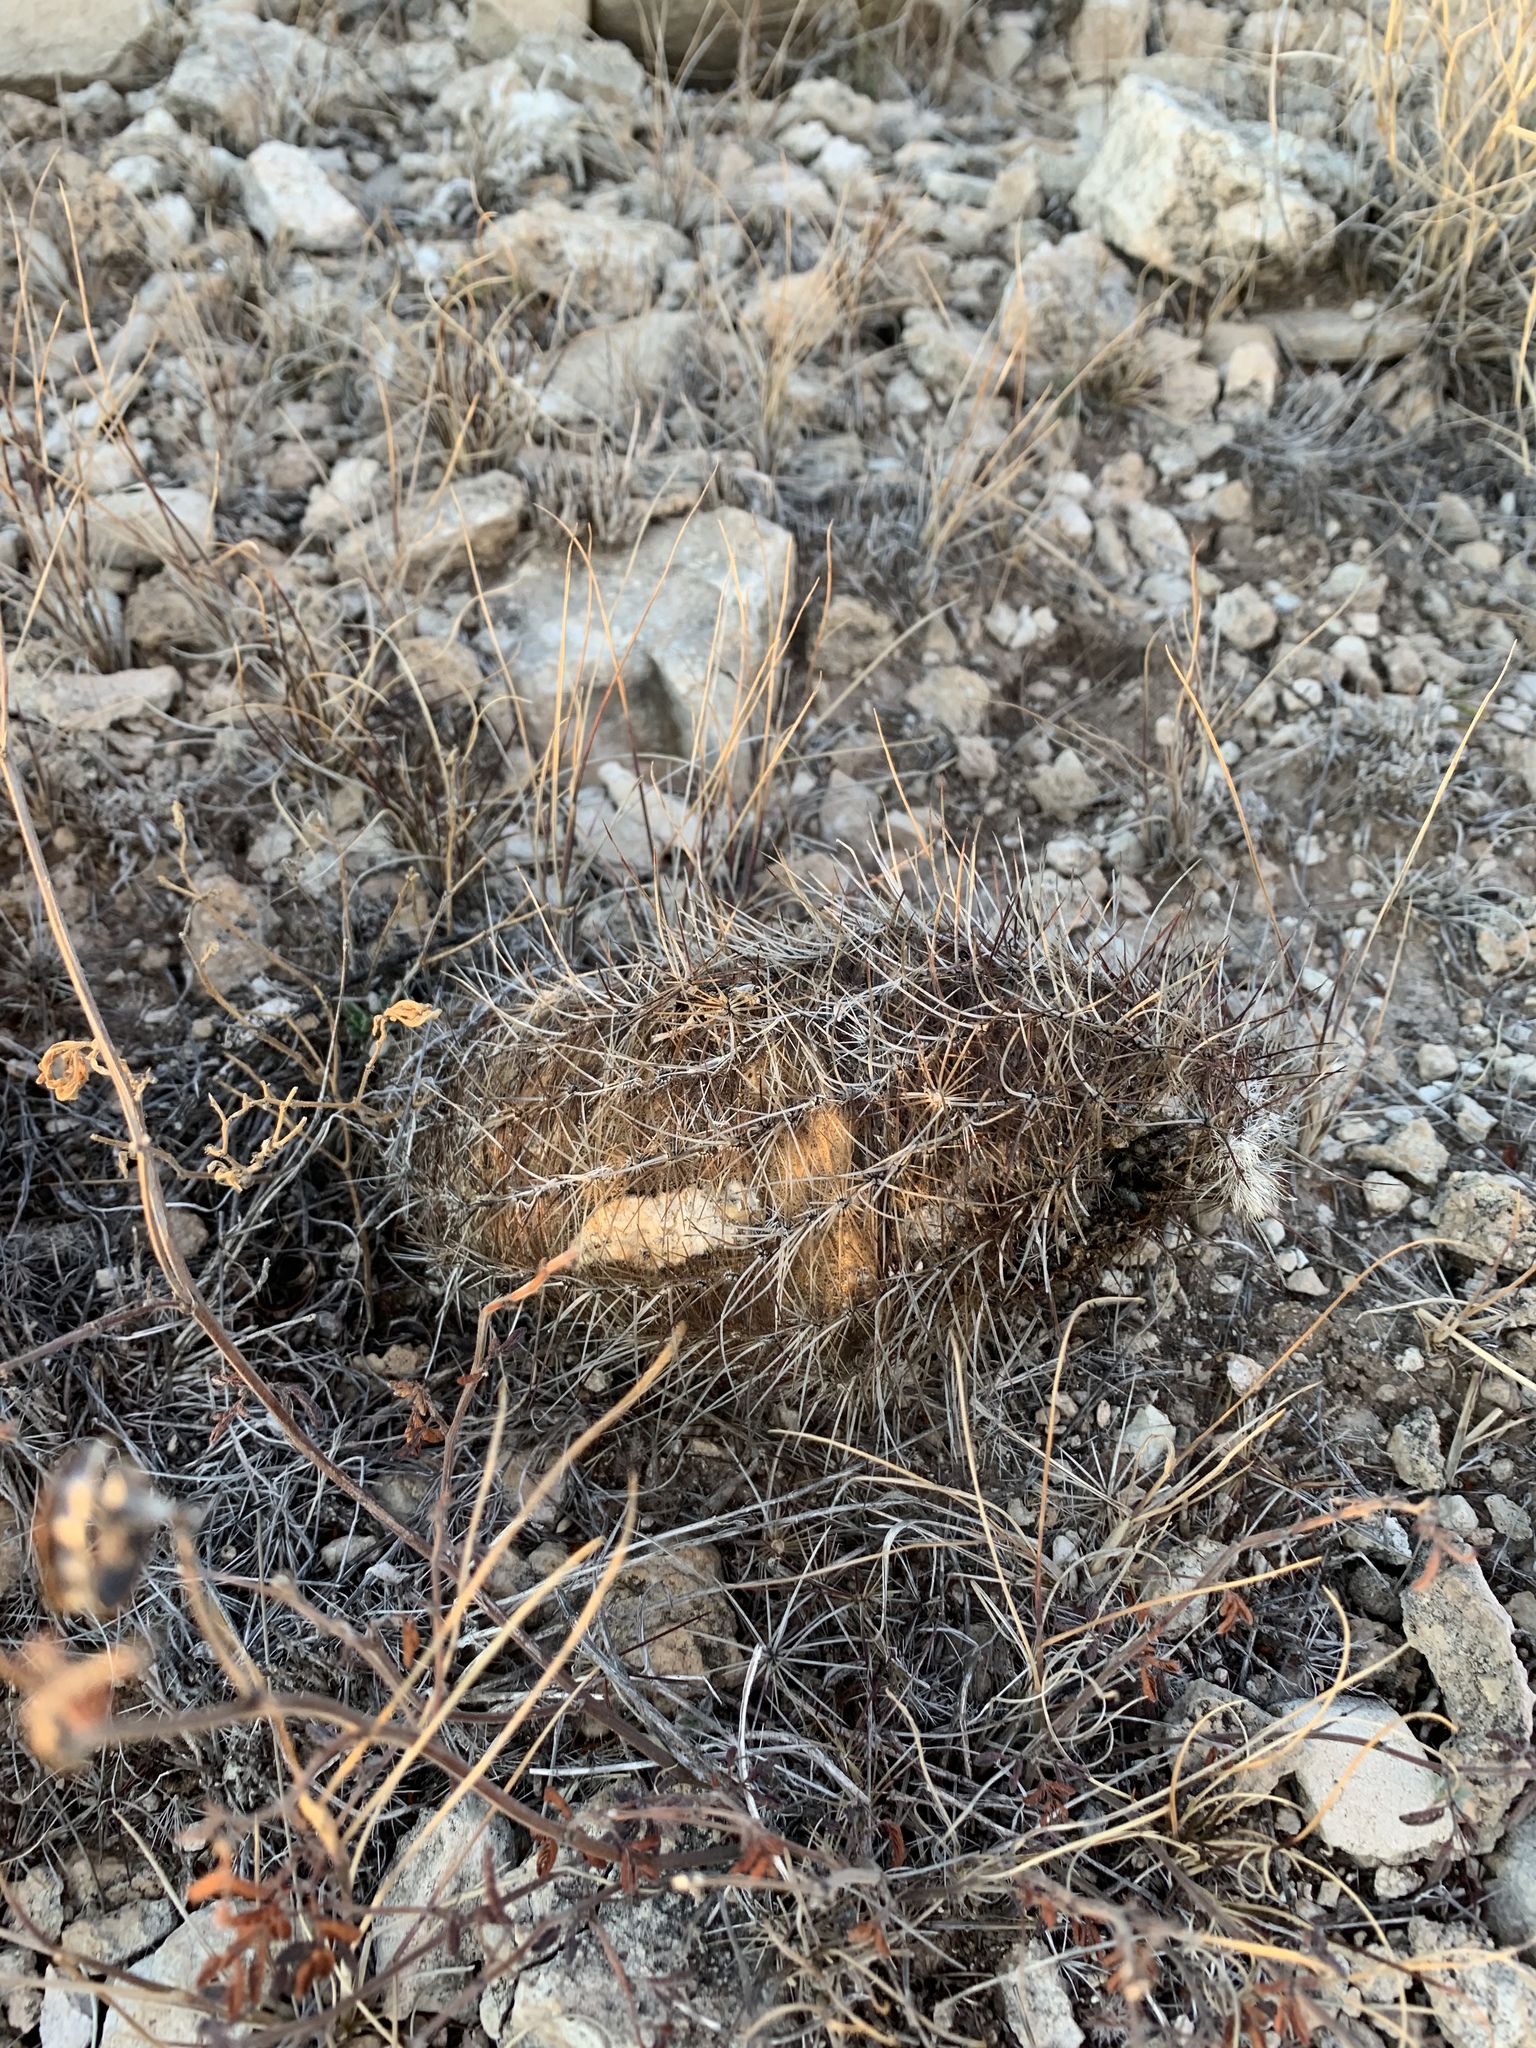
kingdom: Plantae
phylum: Tracheophyta
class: Magnoliopsida
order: Caryophyllales
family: Cactaceae
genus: Echinocereus
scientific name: Echinocereus viridiflorus
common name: Nylon hedgehog cactus
